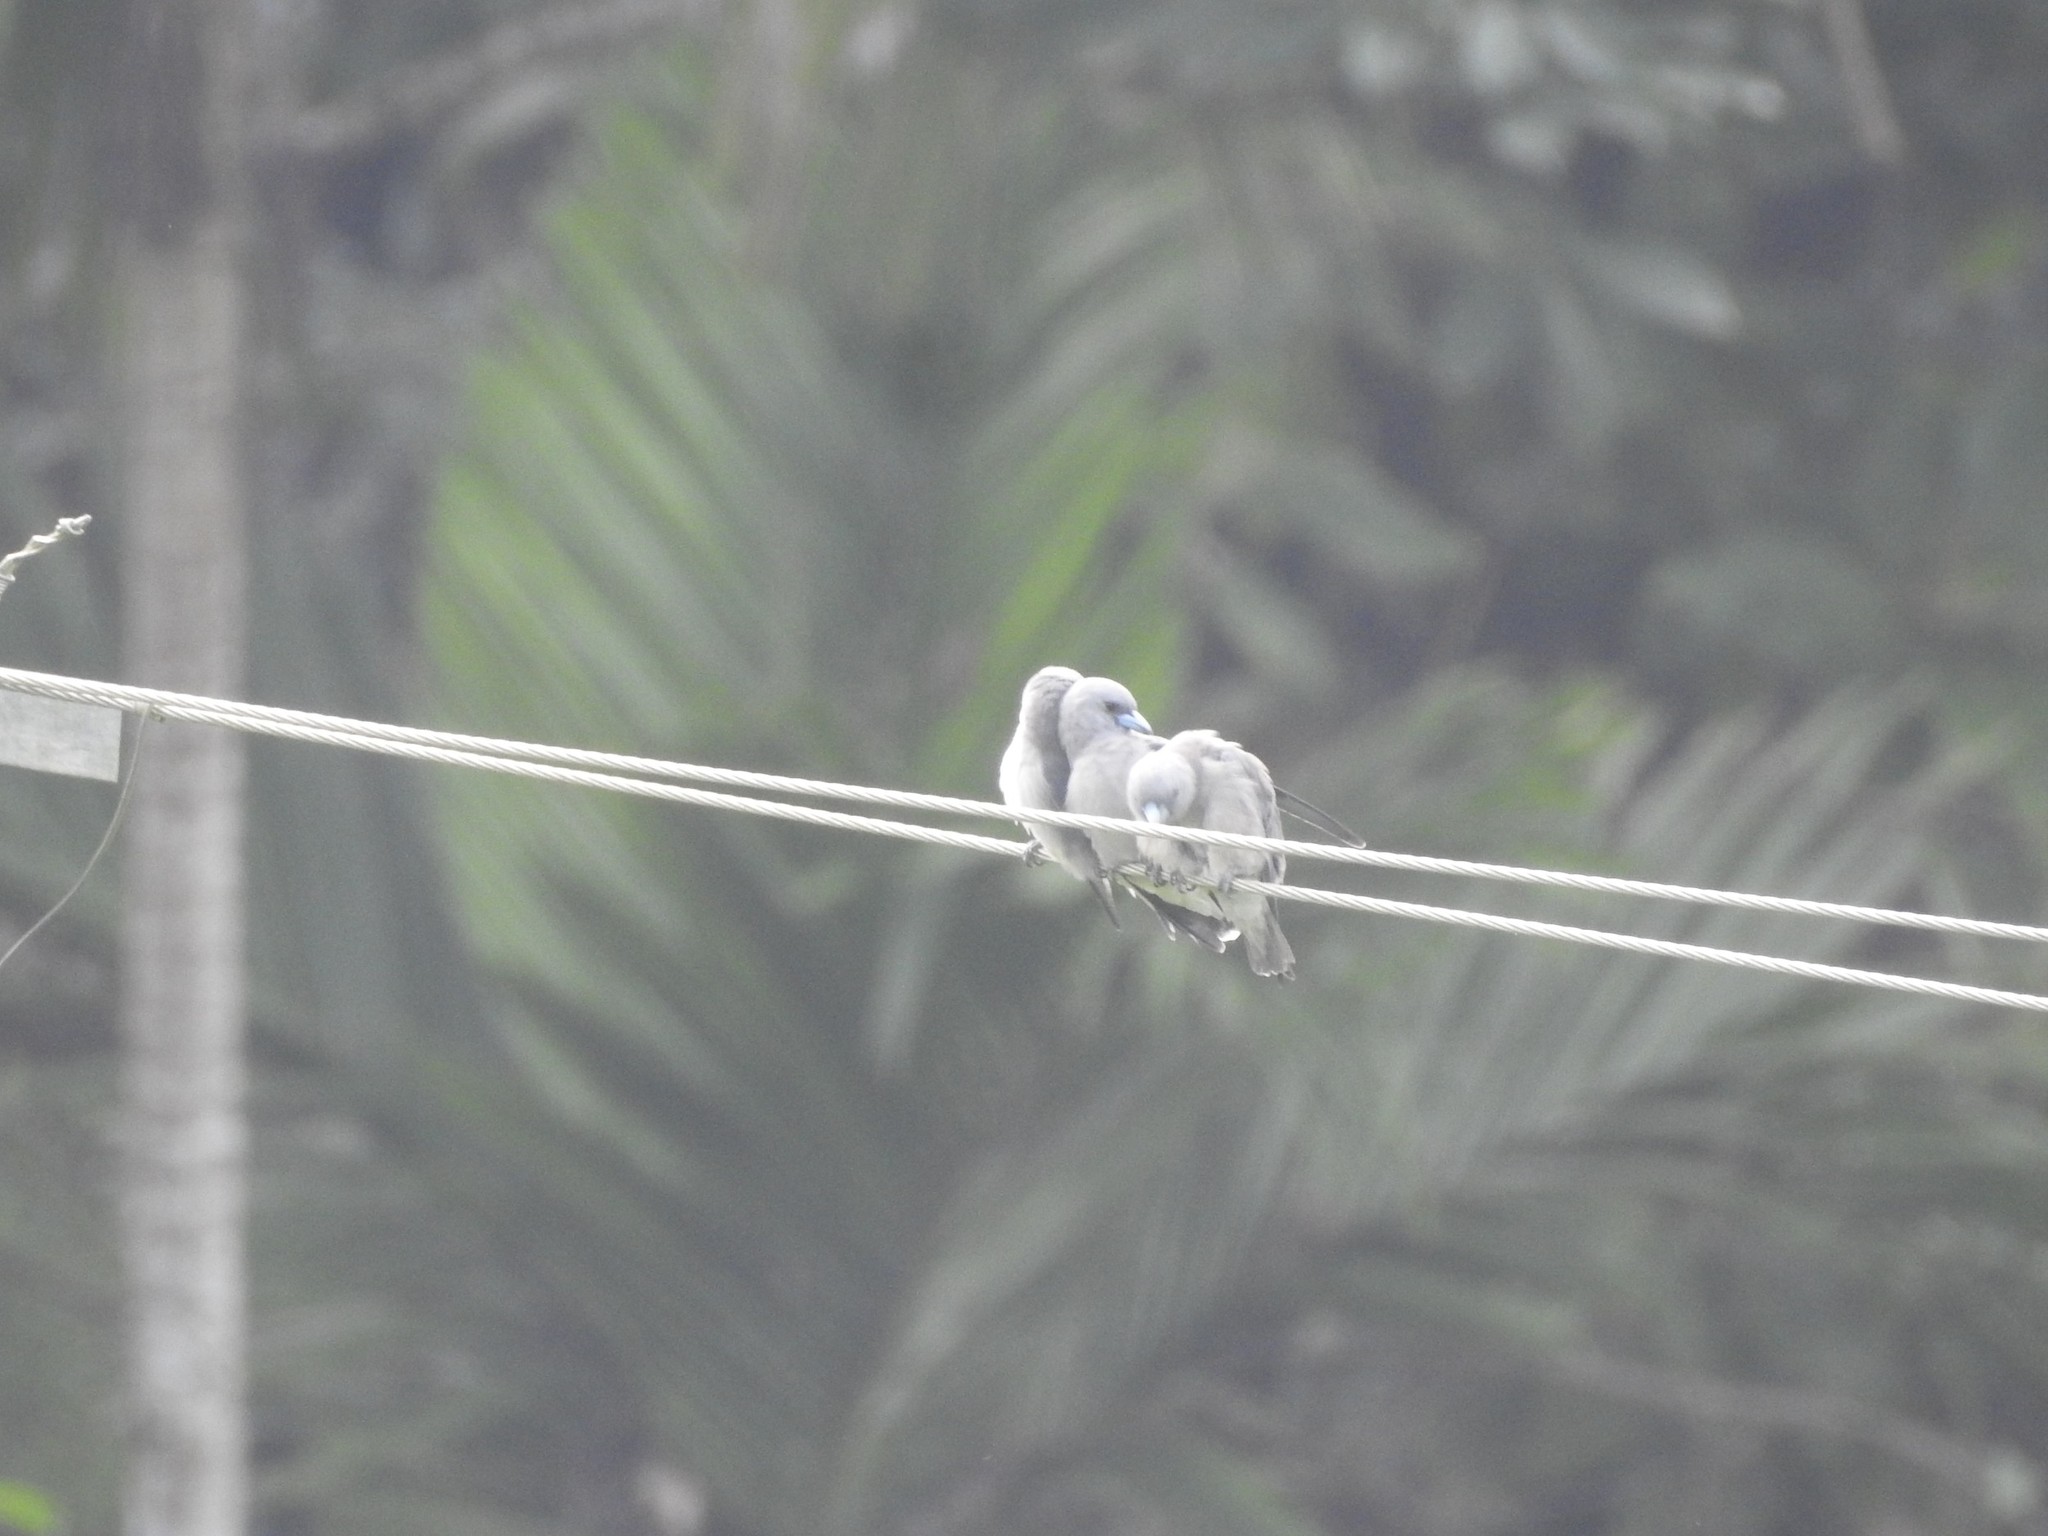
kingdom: Animalia
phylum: Chordata
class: Aves
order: Passeriformes
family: Artamidae
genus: Artamus
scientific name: Artamus fuscus
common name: Ashy woodswallow
